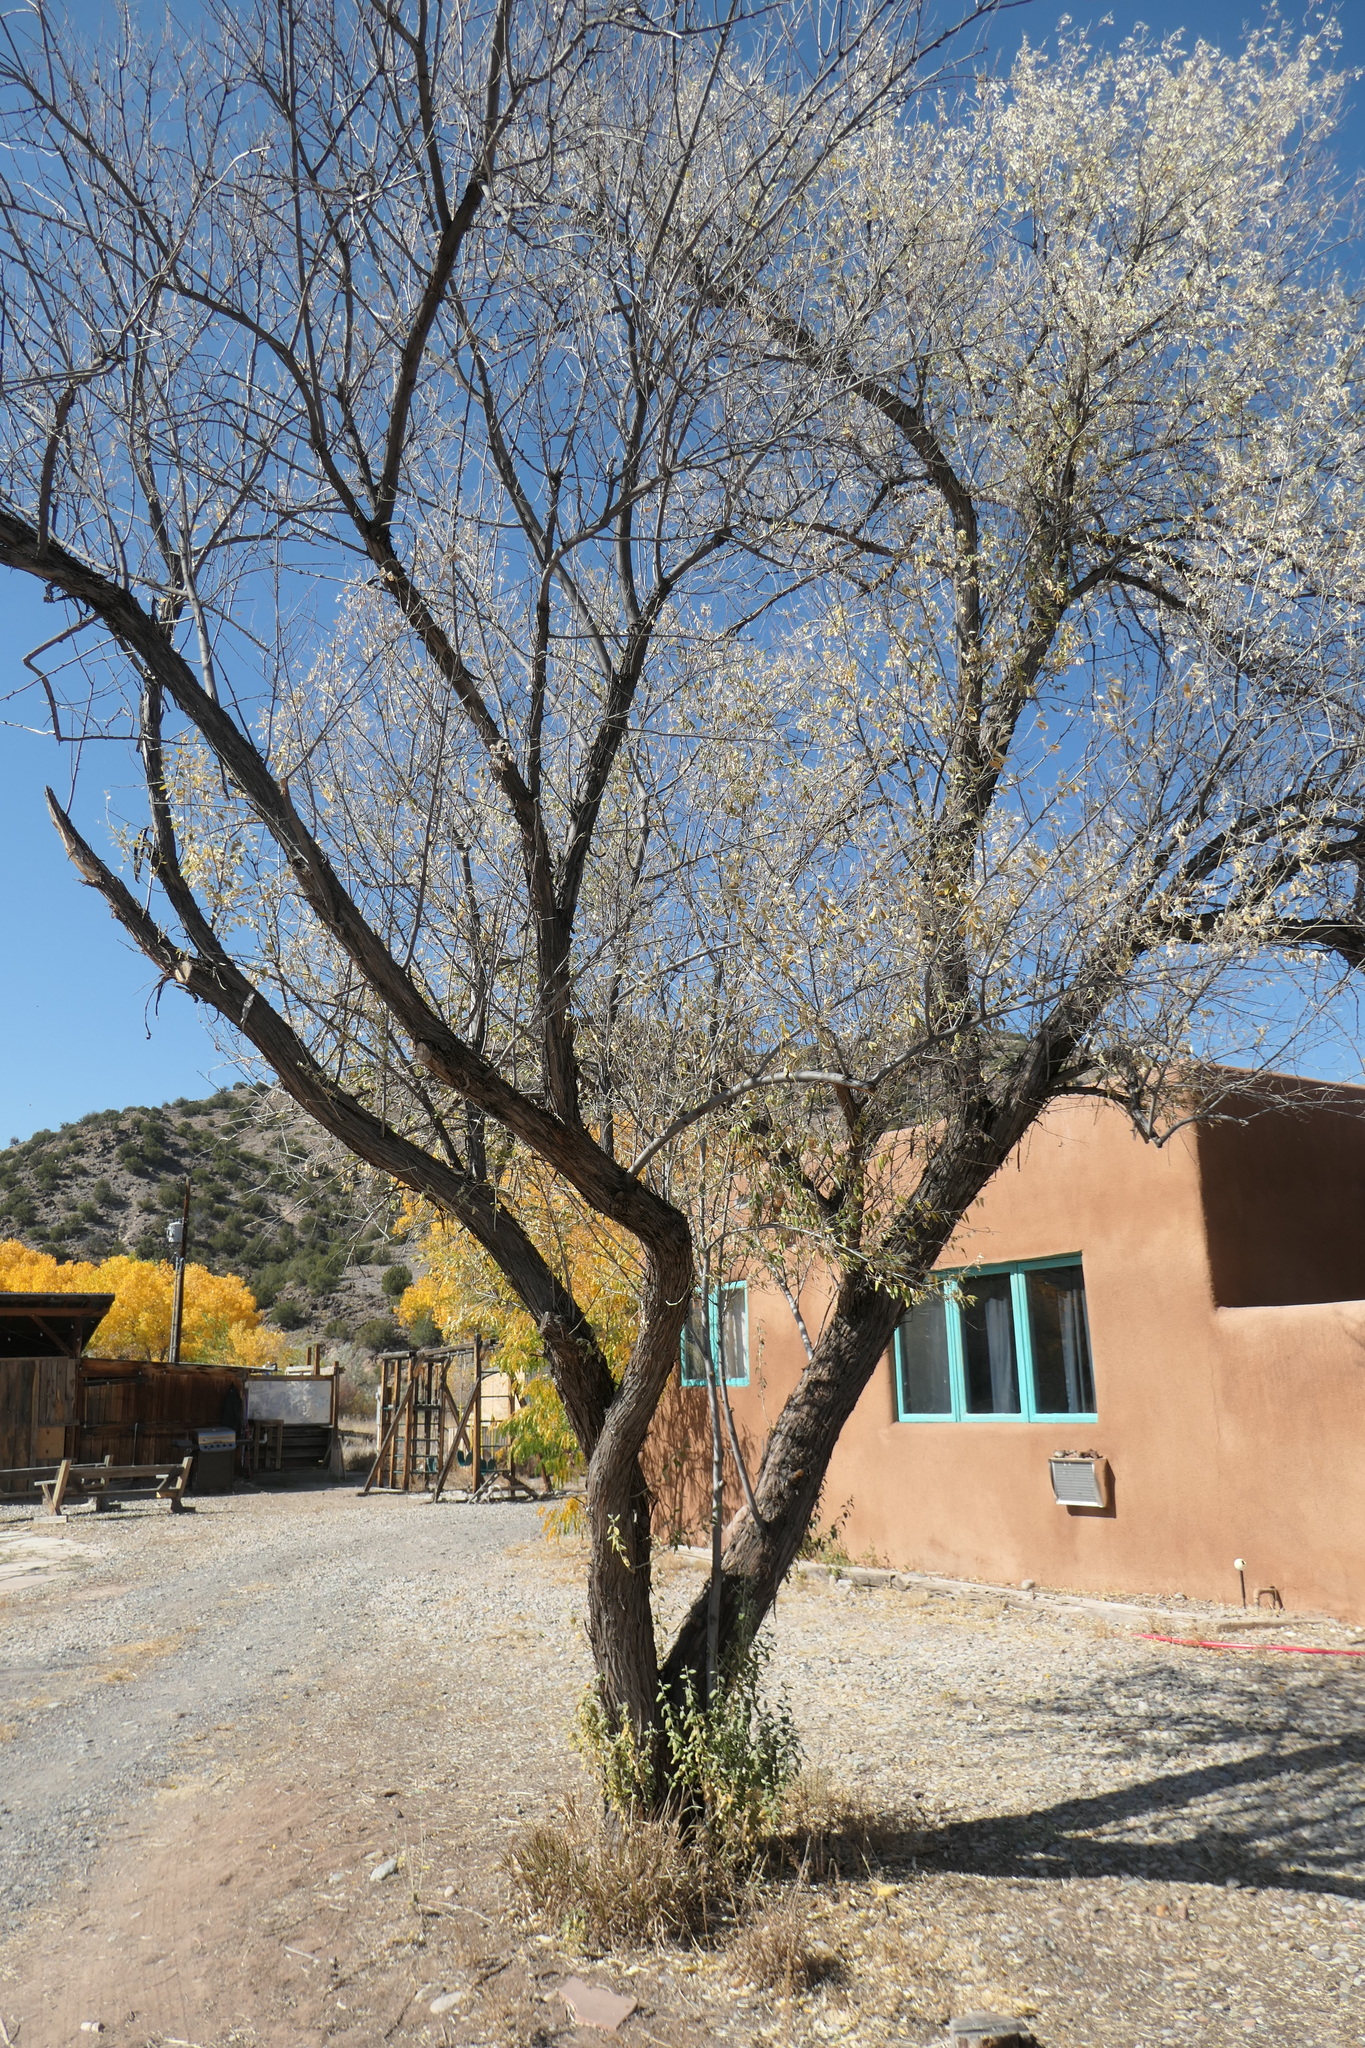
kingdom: Plantae
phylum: Tracheophyta
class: Magnoliopsida
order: Rosales
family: Elaeagnaceae
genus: Elaeagnus
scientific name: Elaeagnus angustifolia
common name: Russian olive
